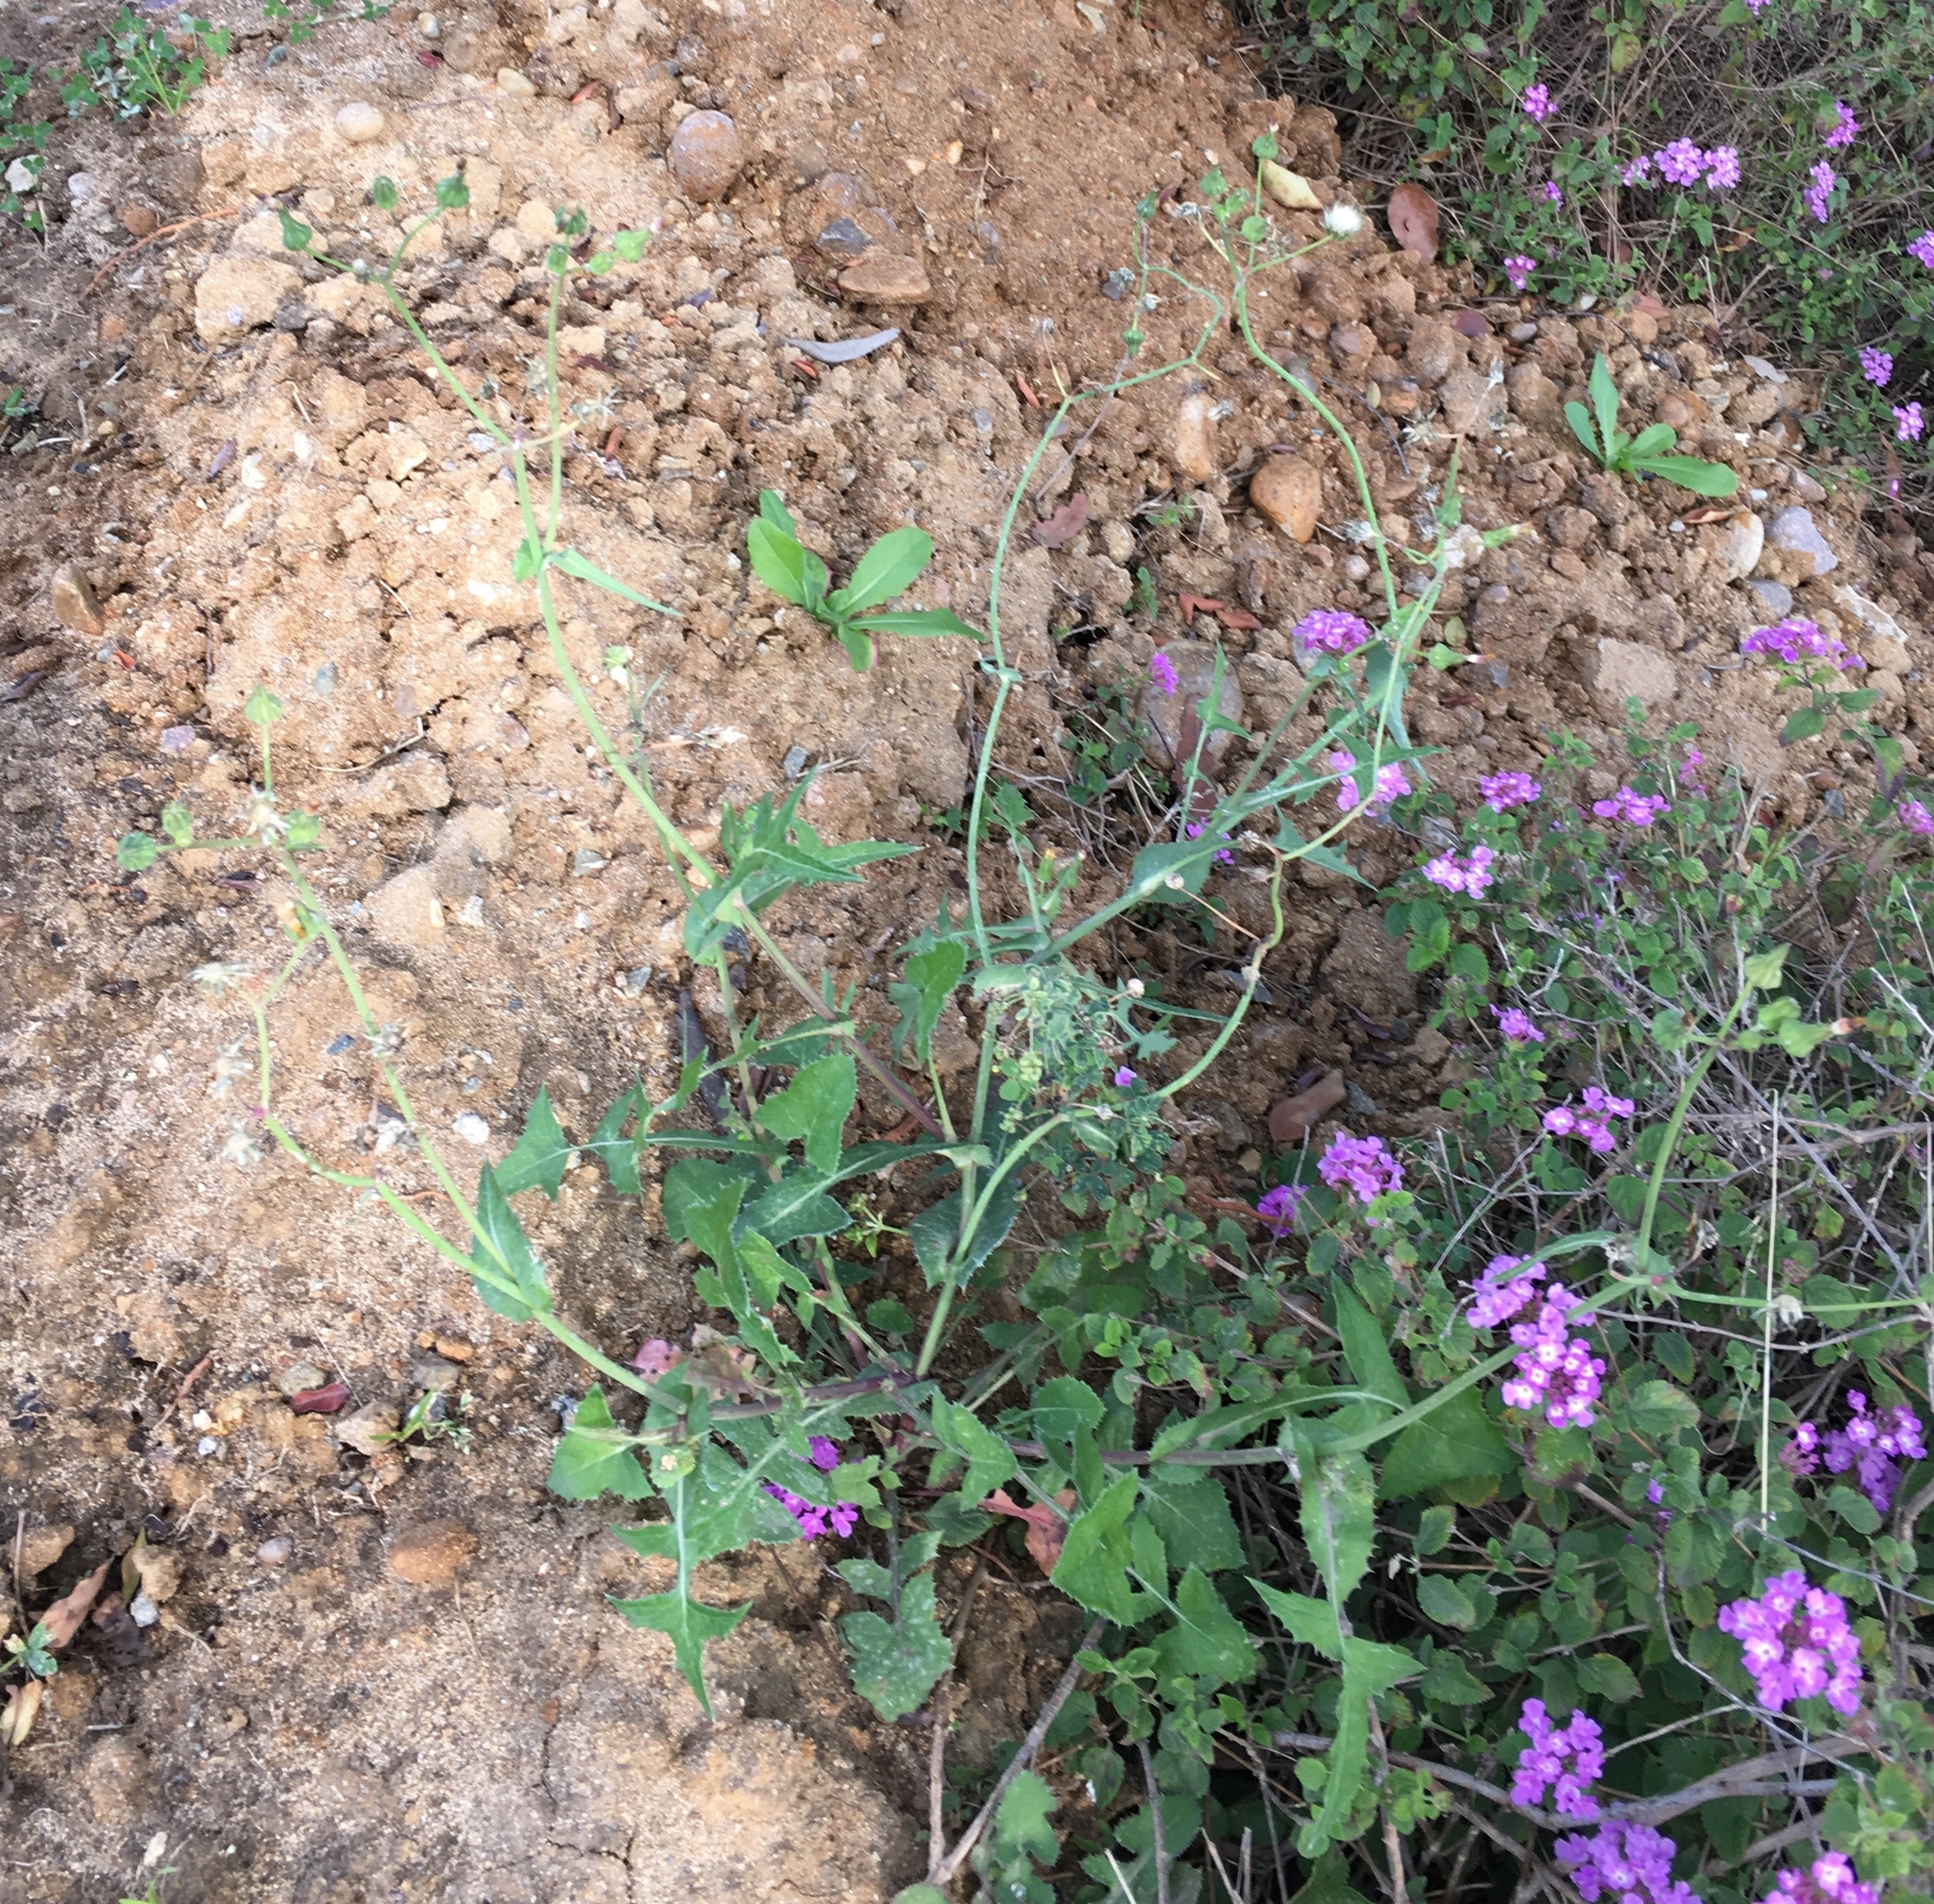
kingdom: Plantae
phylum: Tracheophyta
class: Magnoliopsida
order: Asterales
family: Asteraceae
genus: Sonchus
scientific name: Sonchus oleraceus
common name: Common sowthistle
